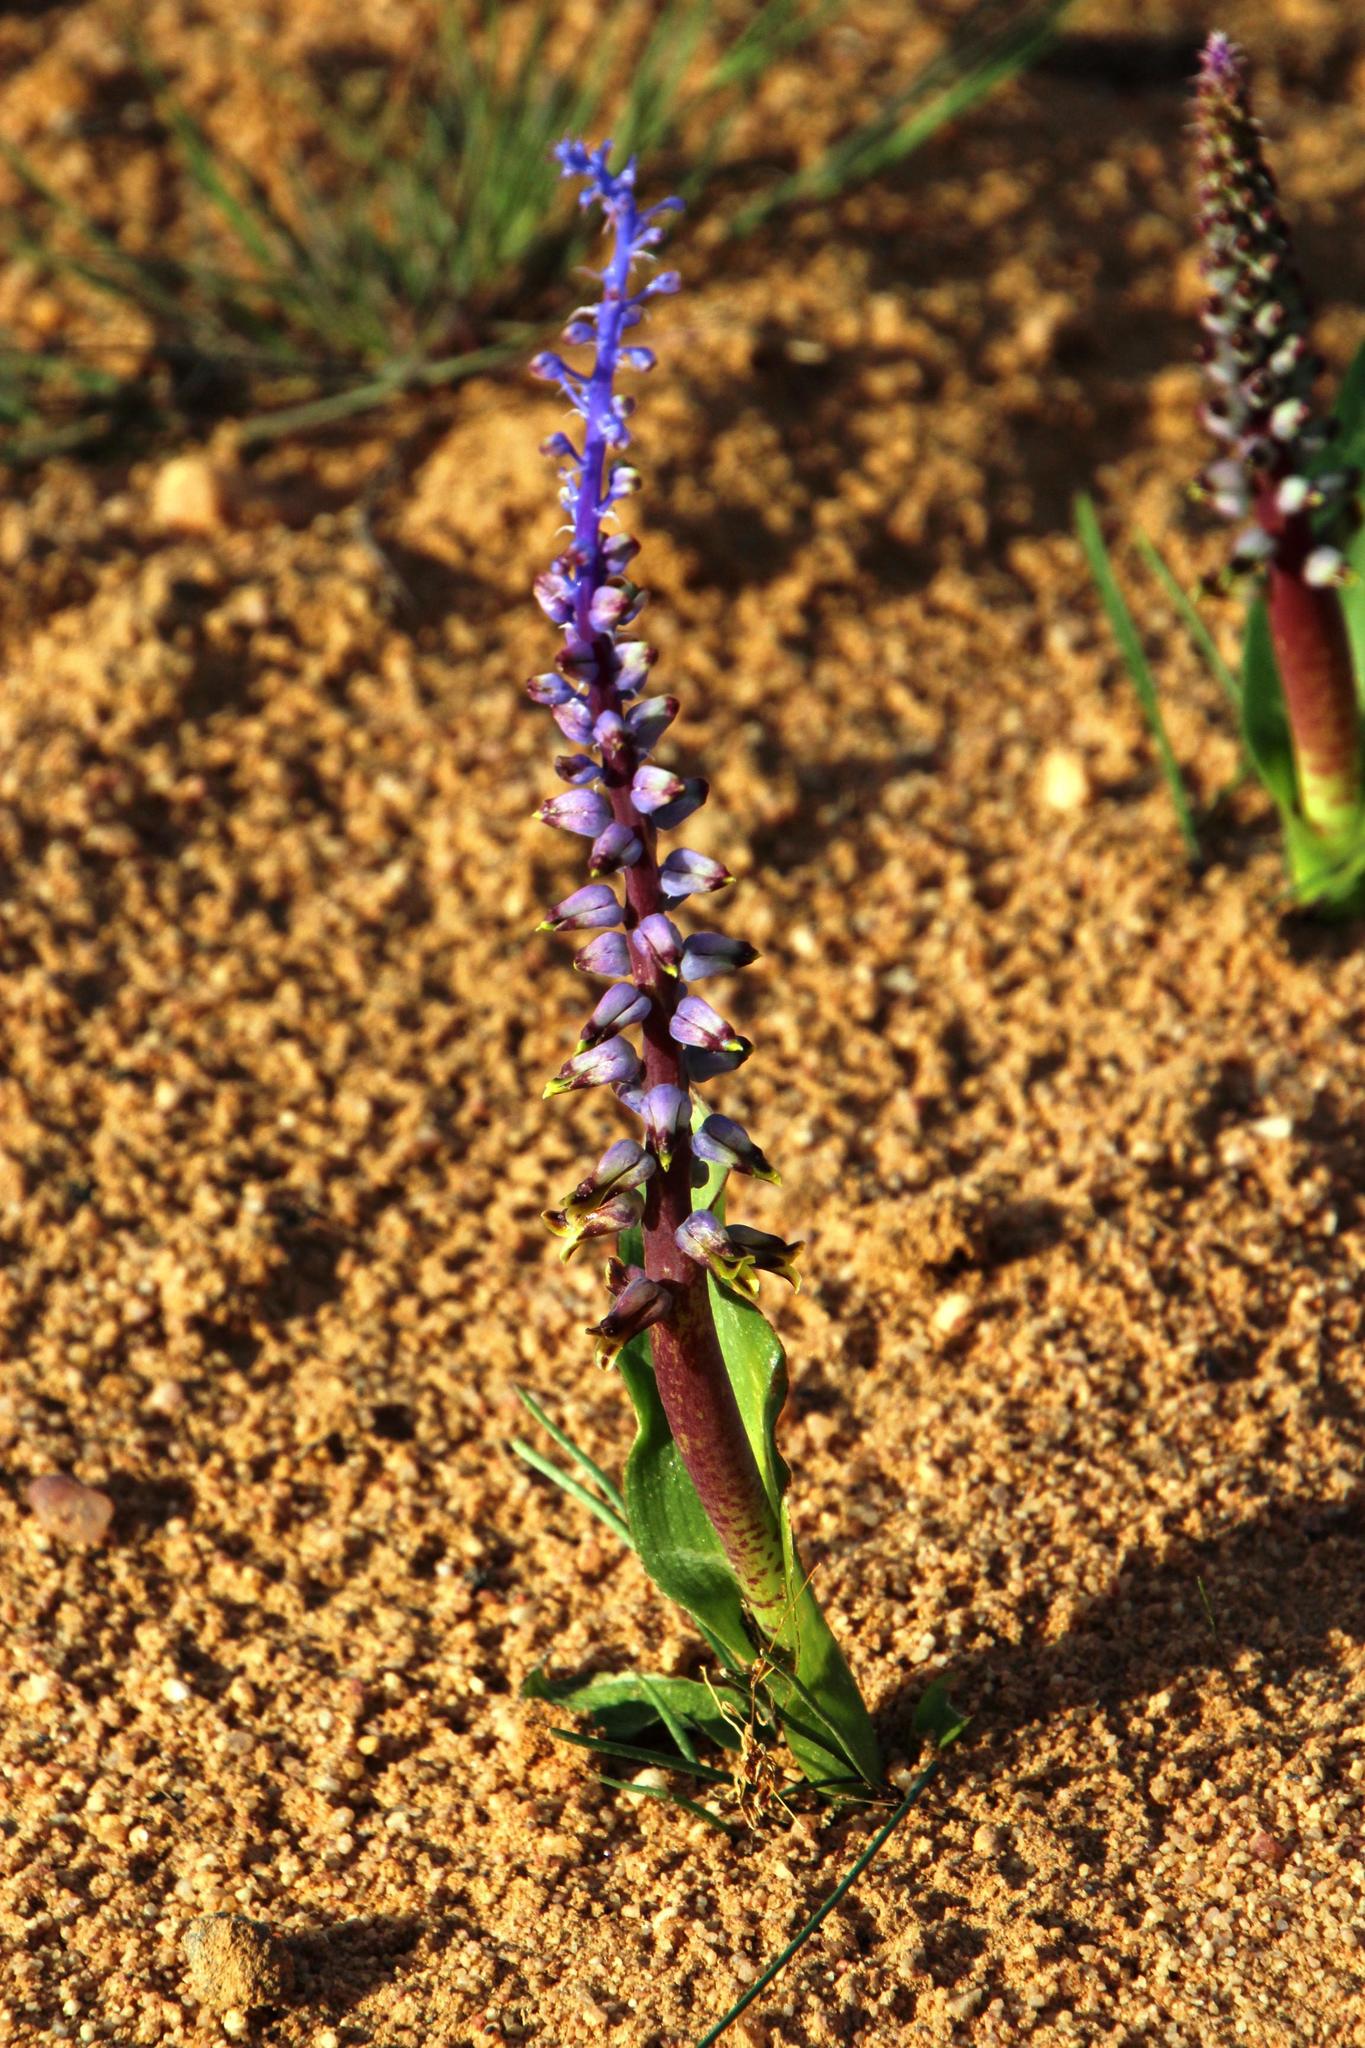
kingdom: Plantae
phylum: Tracheophyta
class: Liliopsida
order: Asparagales
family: Asparagaceae
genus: Lachenalia
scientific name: Lachenalia mutabilis
